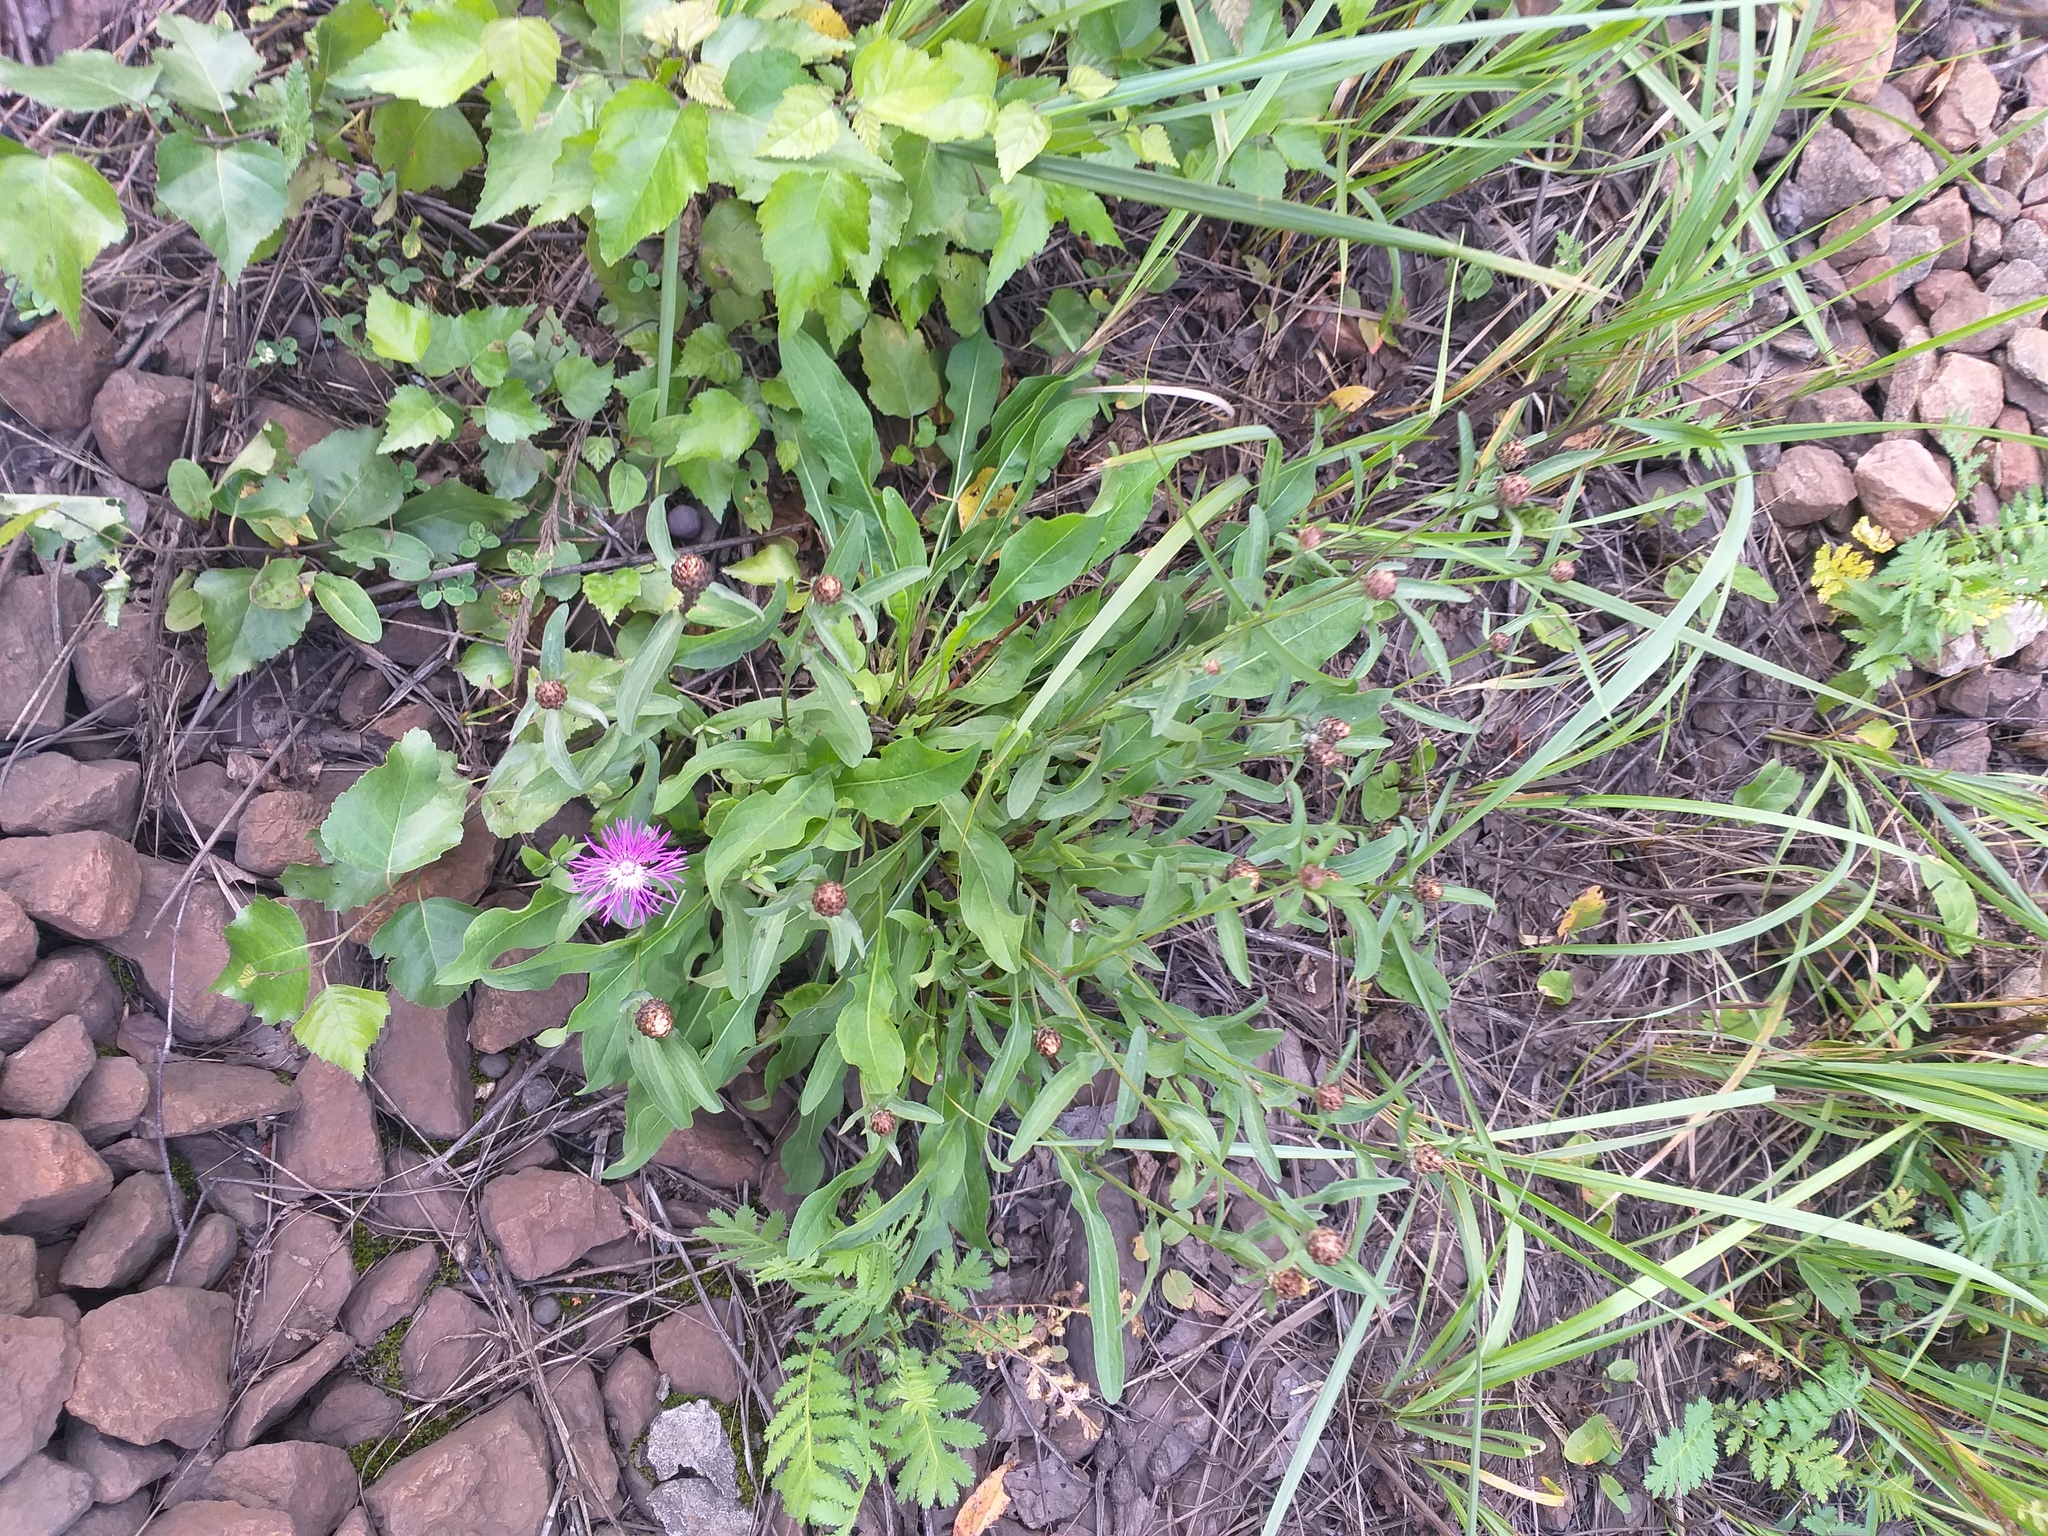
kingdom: Plantae
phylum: Tracheophyta
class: Magnoliopsida
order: Asterales
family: Asteraceae
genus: Centaurea
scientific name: Centaurea jacea
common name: Brown knapweed
